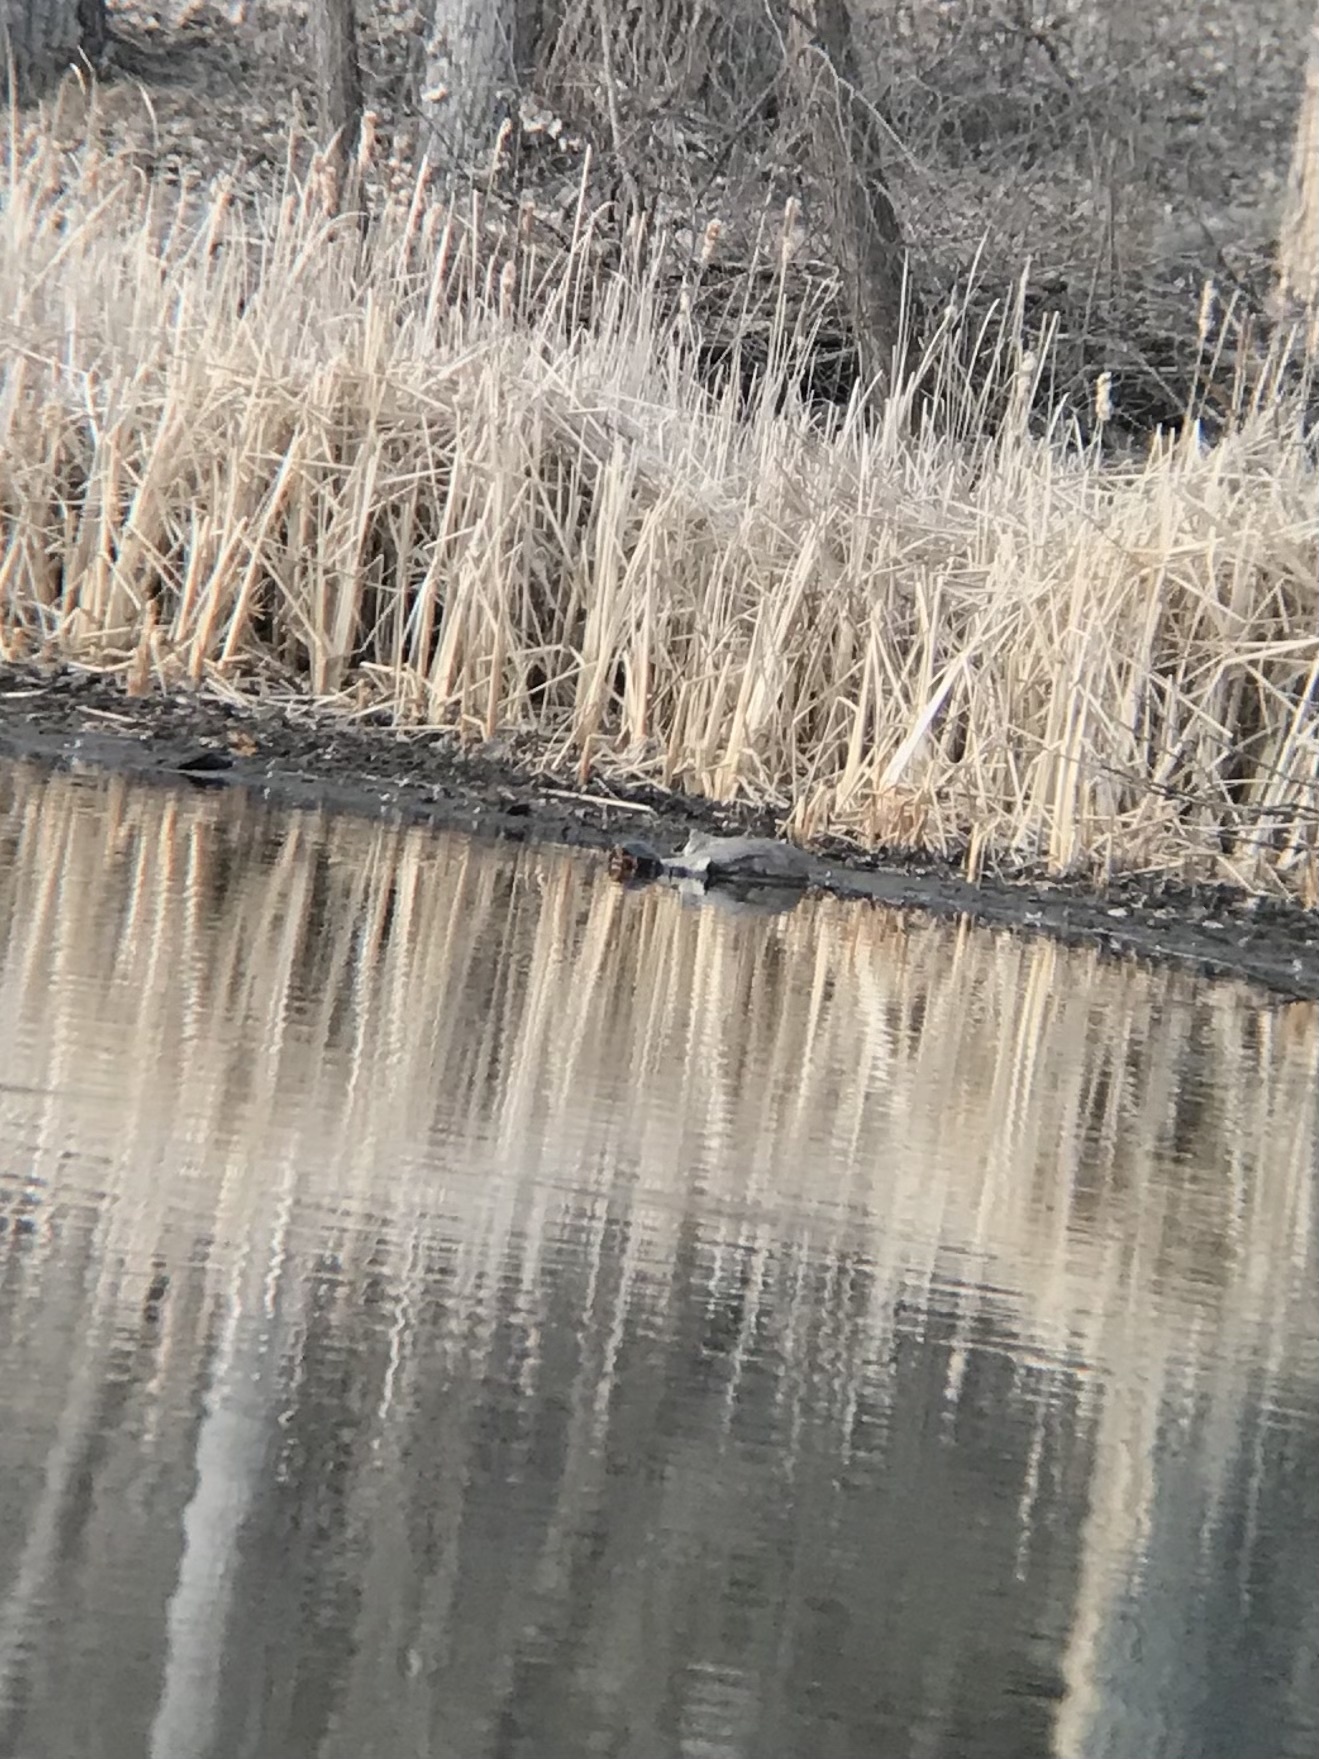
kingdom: Animalia
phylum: Chordata
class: Testudines
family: Emydidae
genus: Chrysemys
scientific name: Chrysemys picta
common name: Painted turtle
